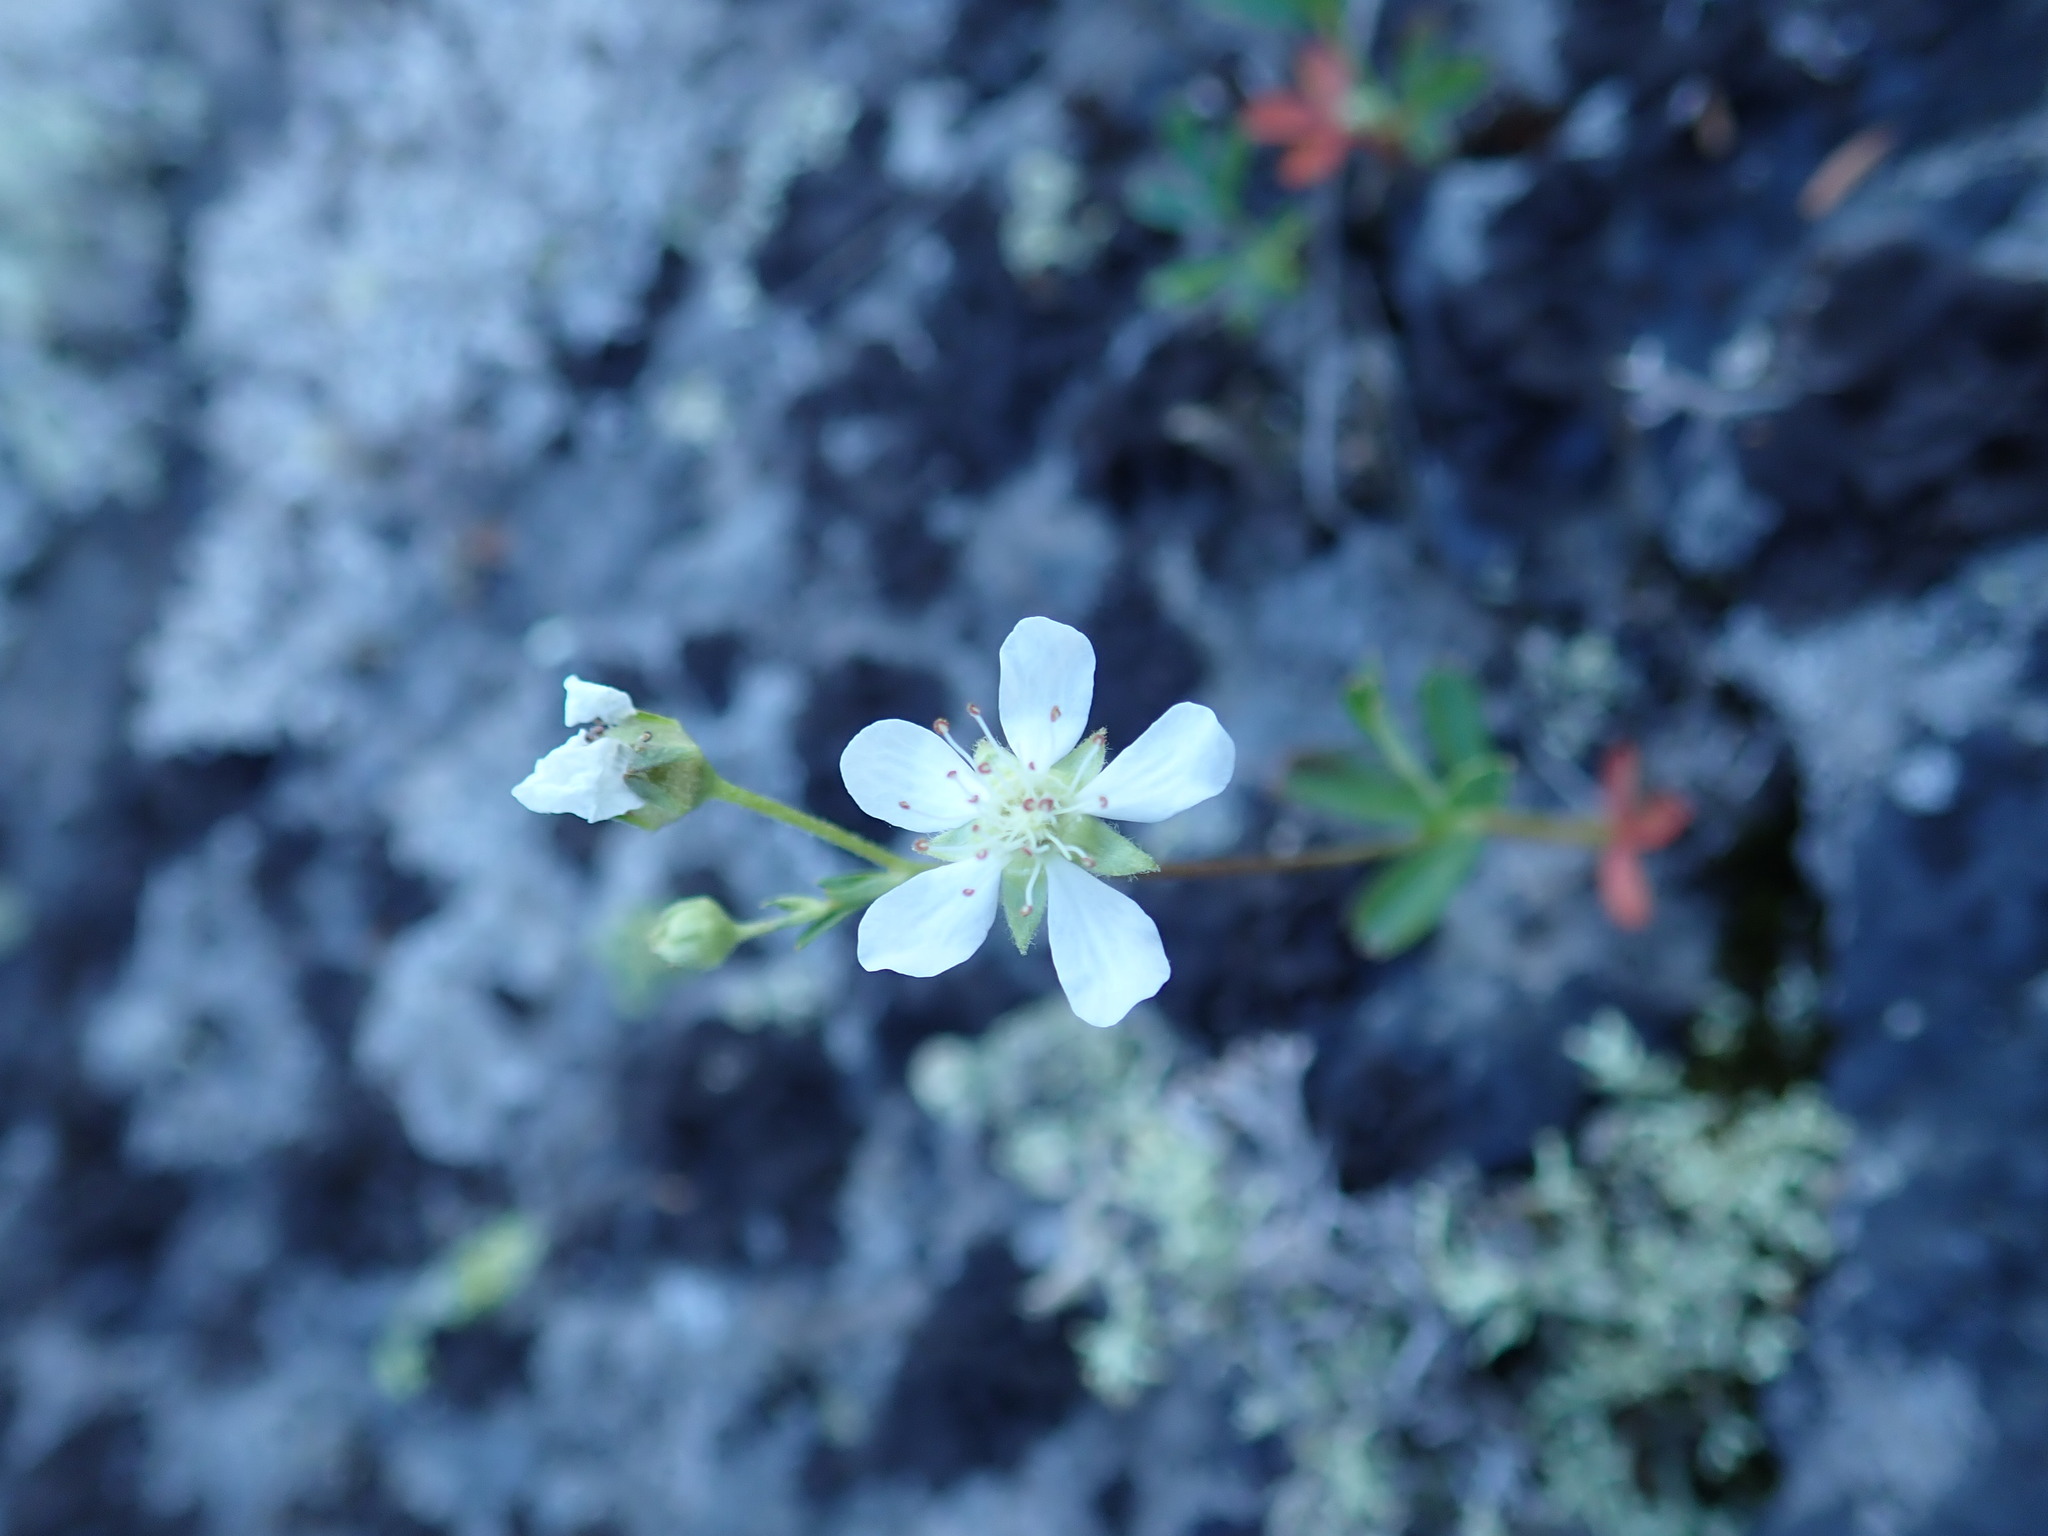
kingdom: Plantae
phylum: Tracheophyta
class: Magnoliopsida
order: Rosales
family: Rosaceae
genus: Sibbaldia
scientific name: Sibbaldia tridentata
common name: Three-toothed cinquefoil
